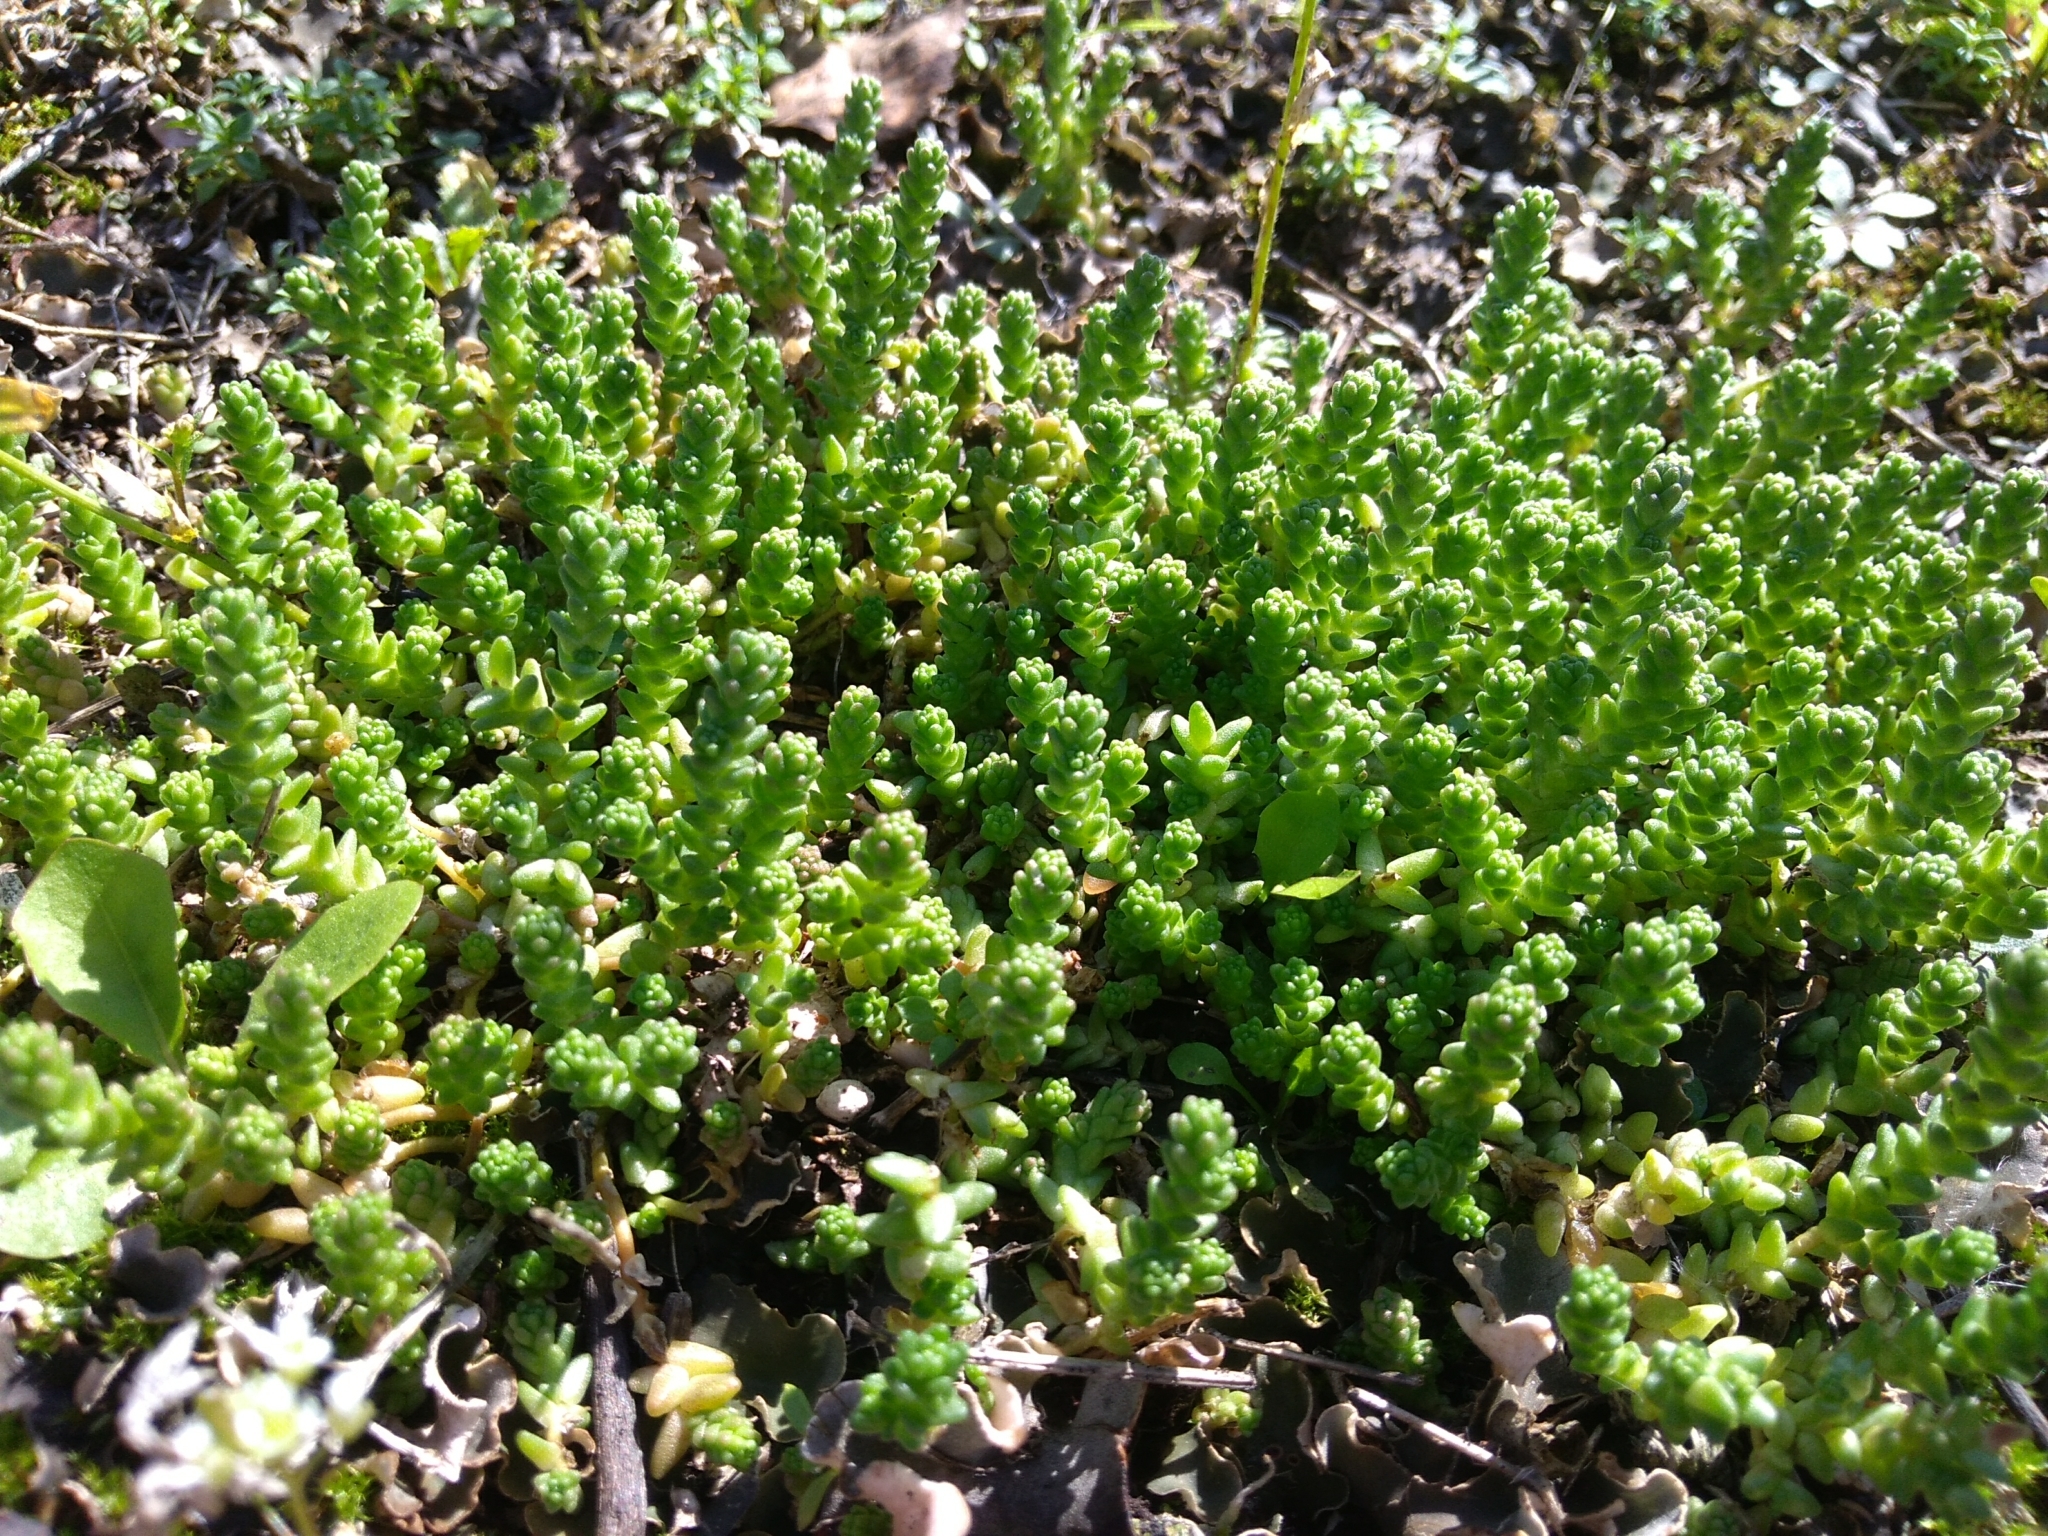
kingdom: Plantae
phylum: Tracheophyta
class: Magnoliopsida
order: Saxifragales
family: Crassulaceae
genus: Sedum
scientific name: Sedum acre
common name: Biting stonecrop
